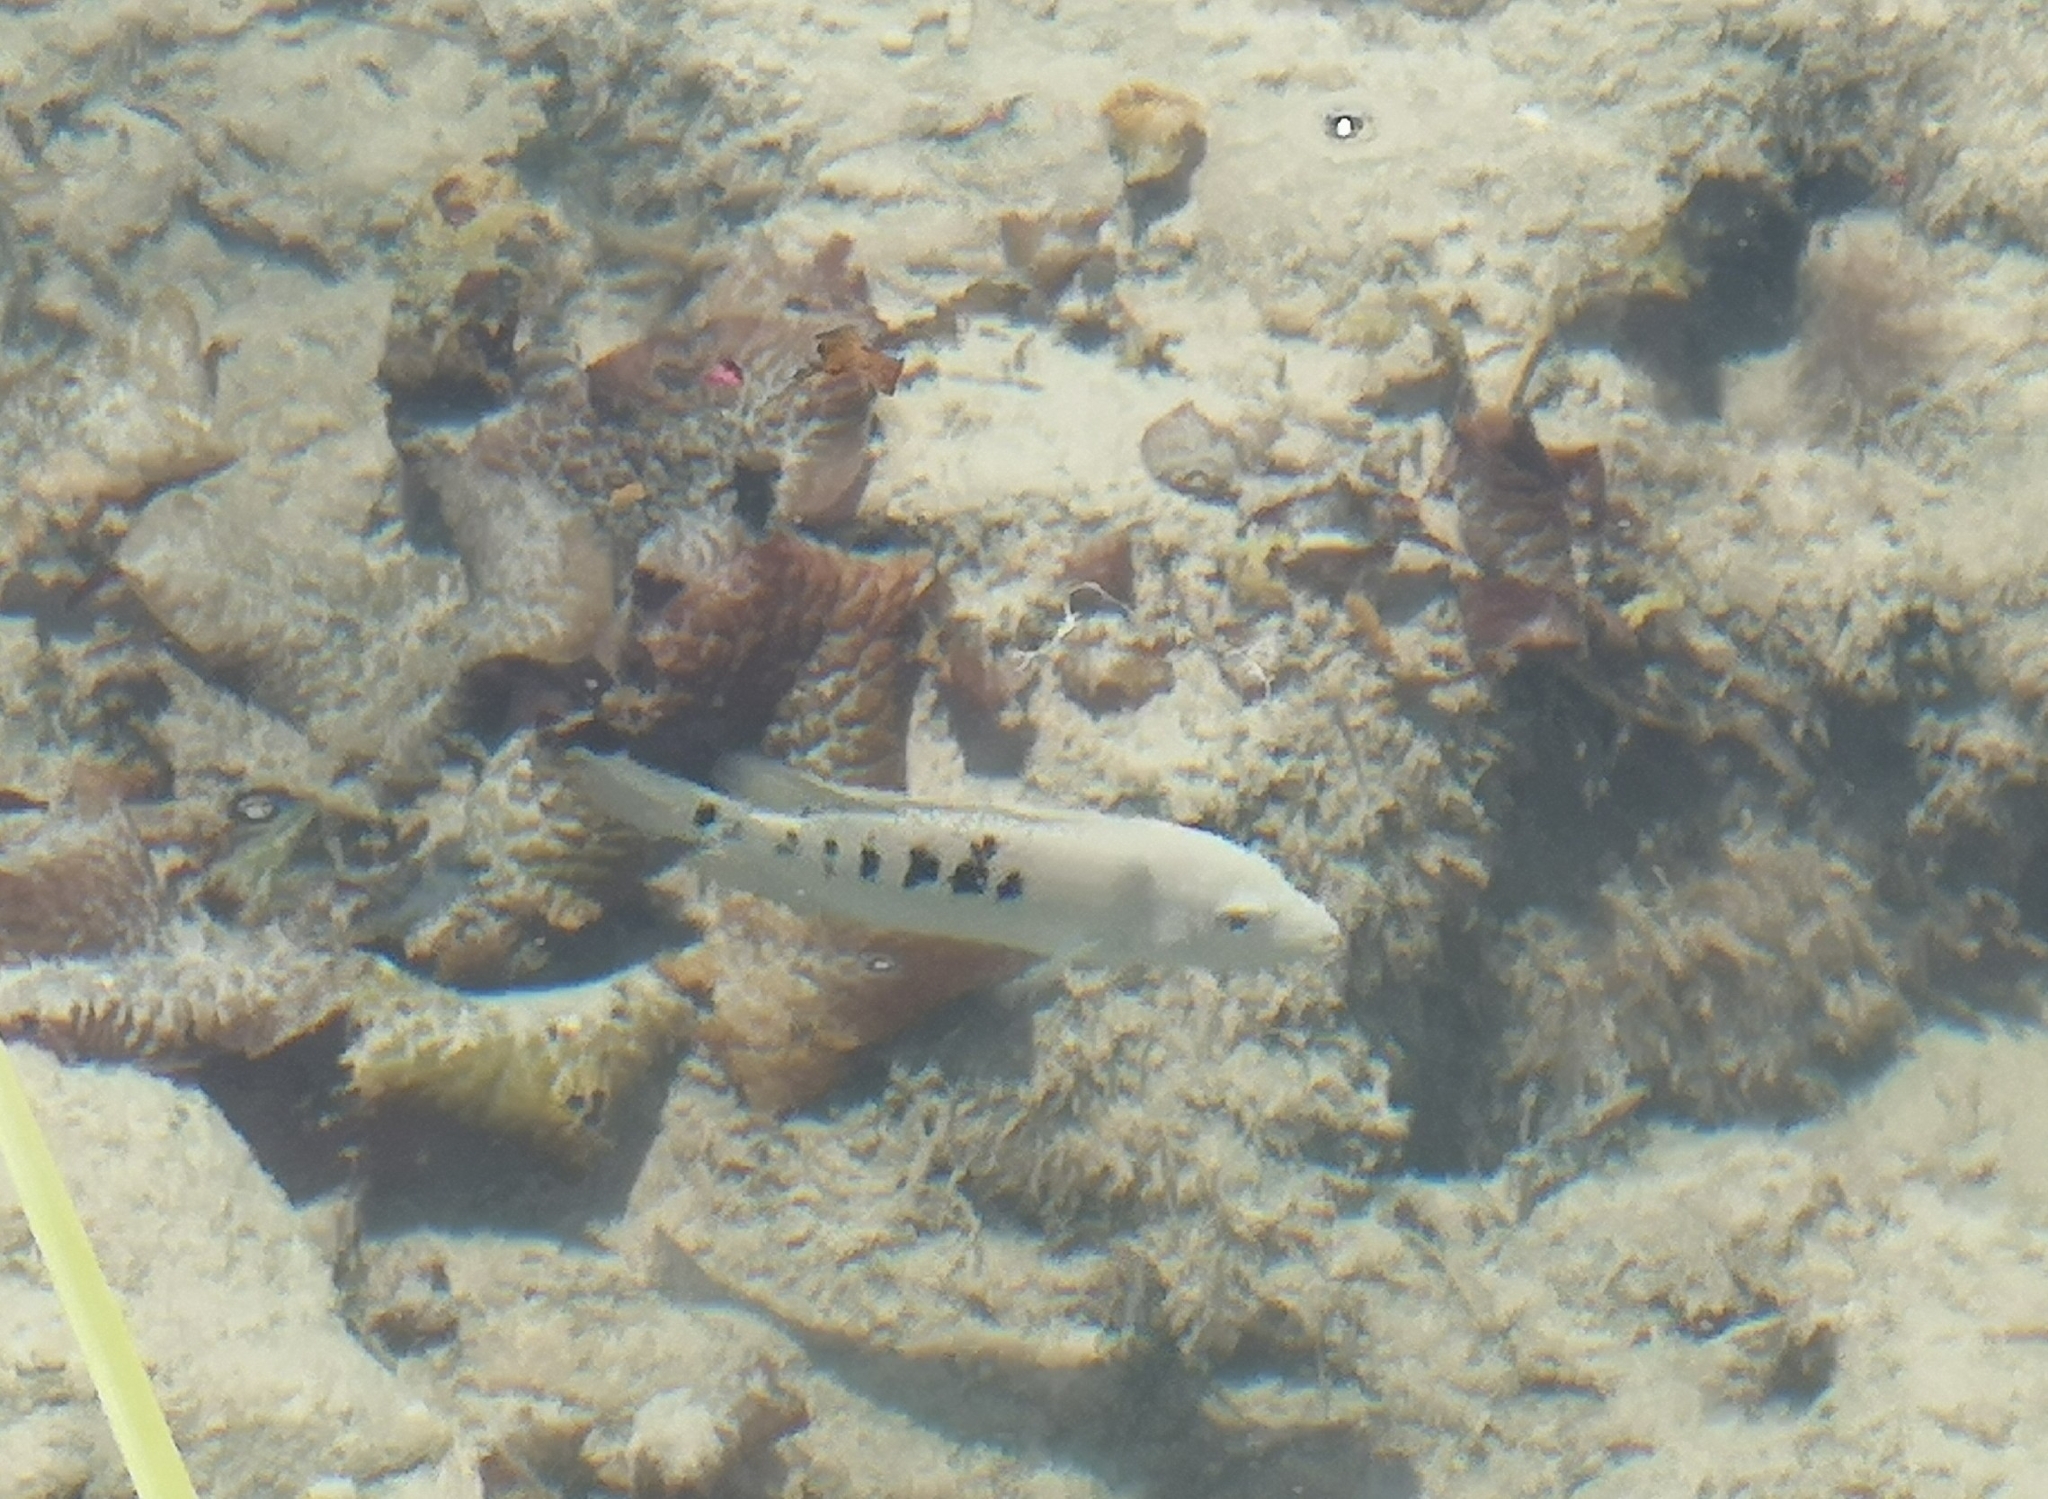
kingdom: Animalia
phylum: Chordata
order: Perciformes
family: Cichlidae
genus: Herichthys
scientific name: Herichthys minckleyi
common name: Minkley's cichlid
